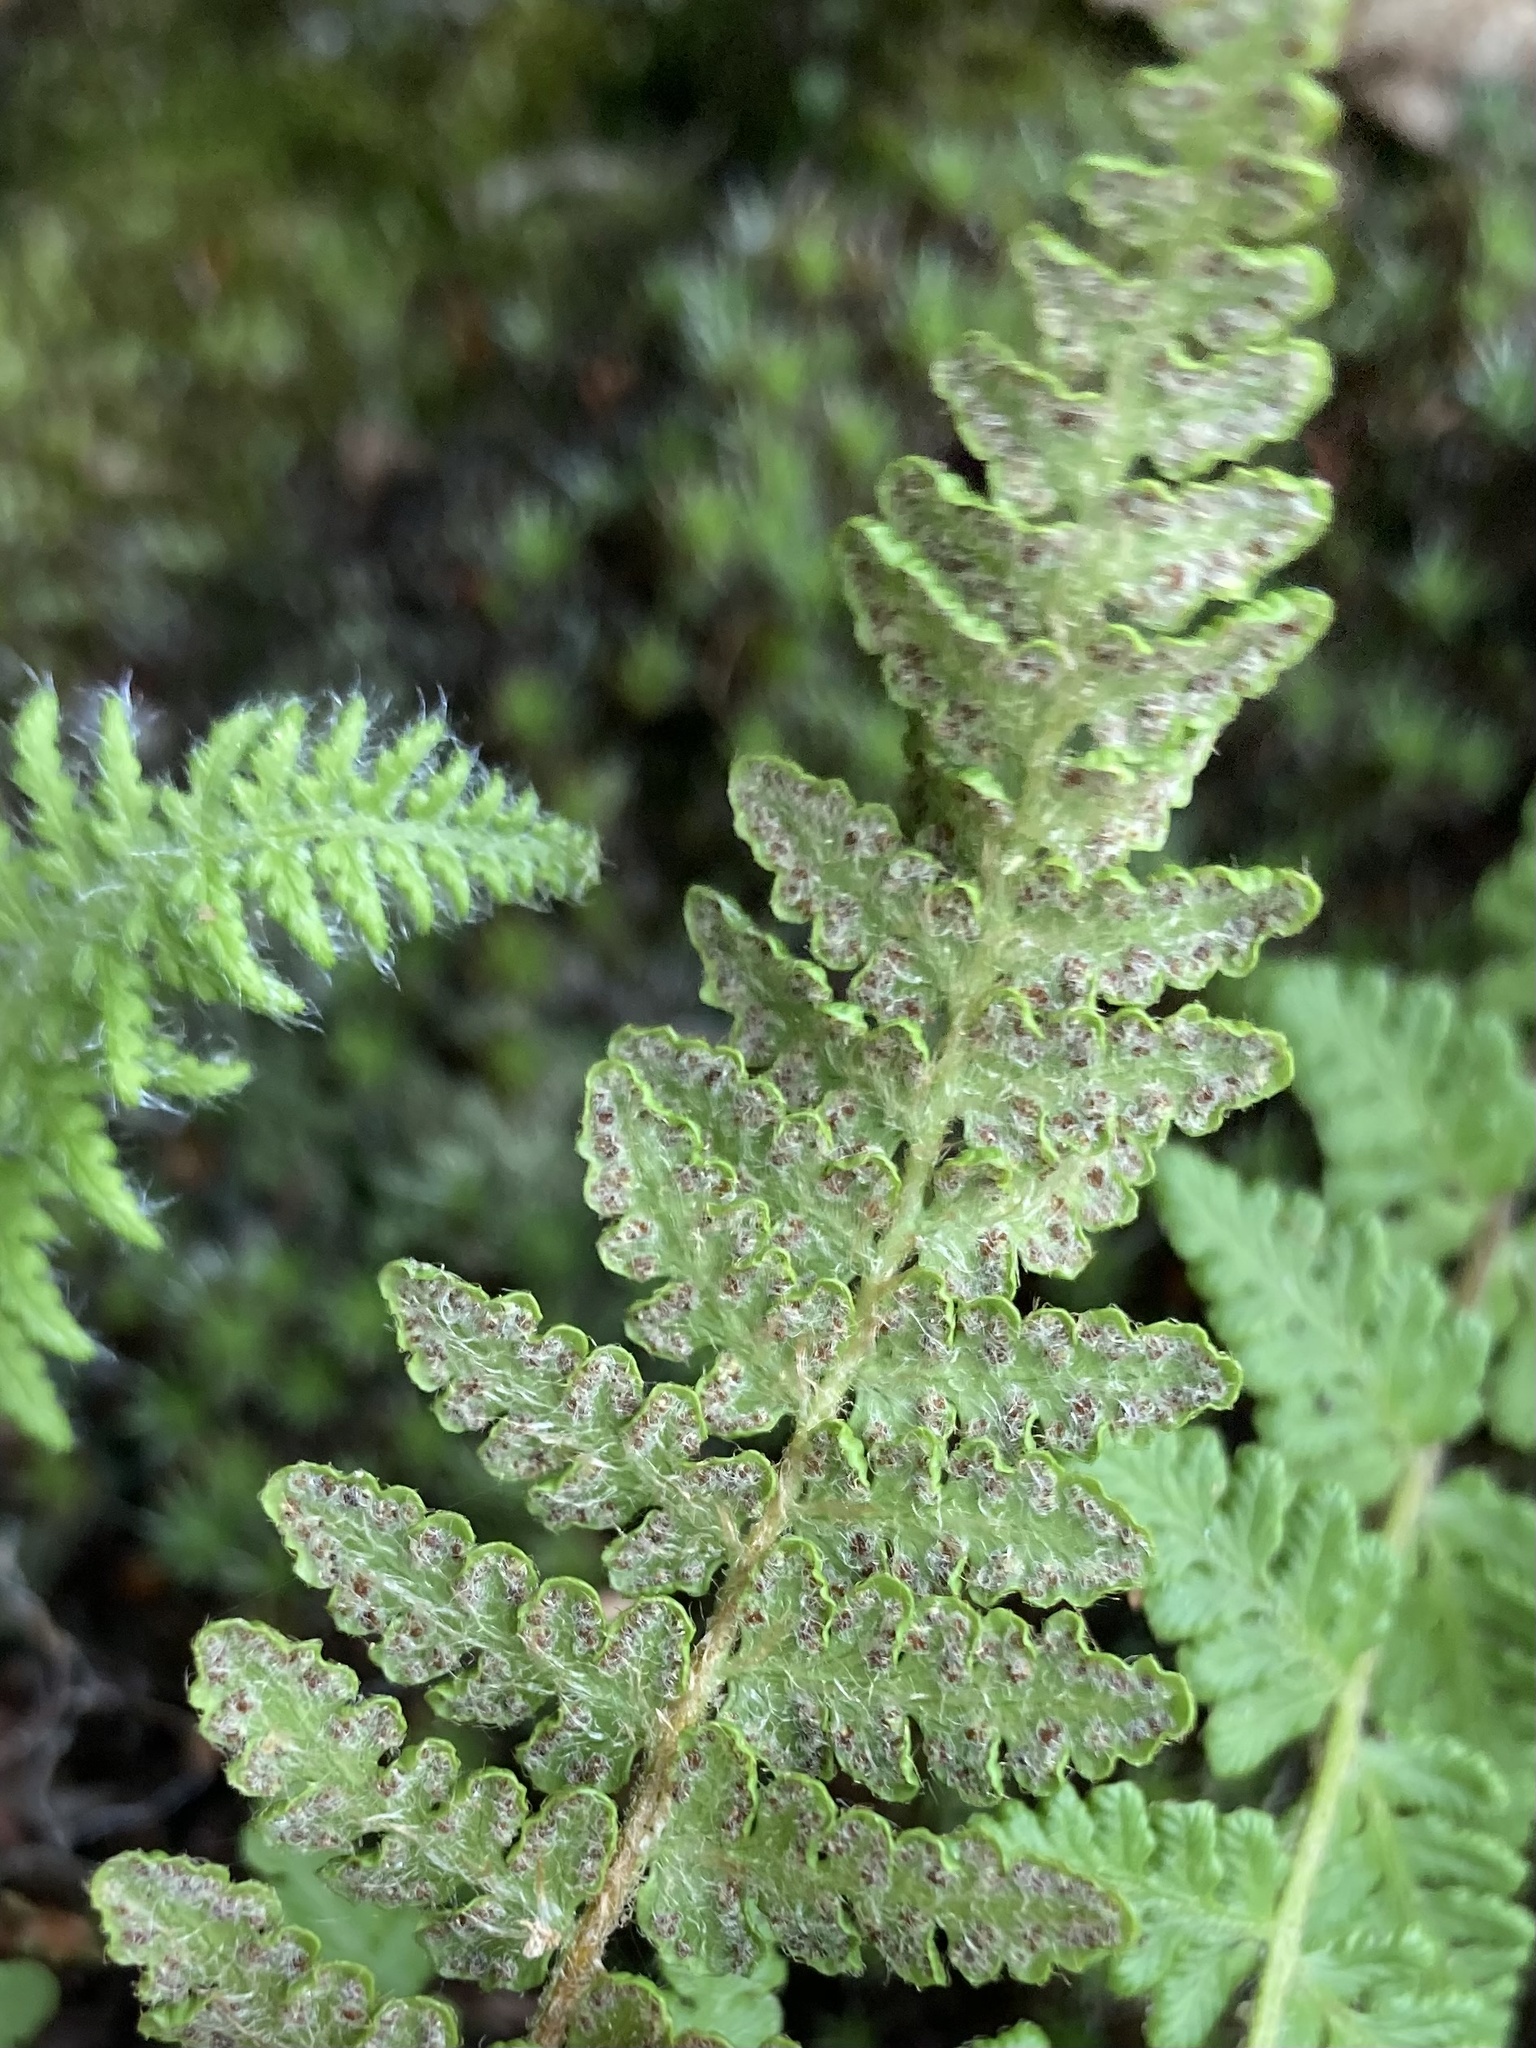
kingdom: Plantae
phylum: Tracheophyta
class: Polypodiopsida
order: Polypodiales
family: Woodsiaceae
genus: Woodsia
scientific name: Woodsia ilvensis
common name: Fragrant woodsia
